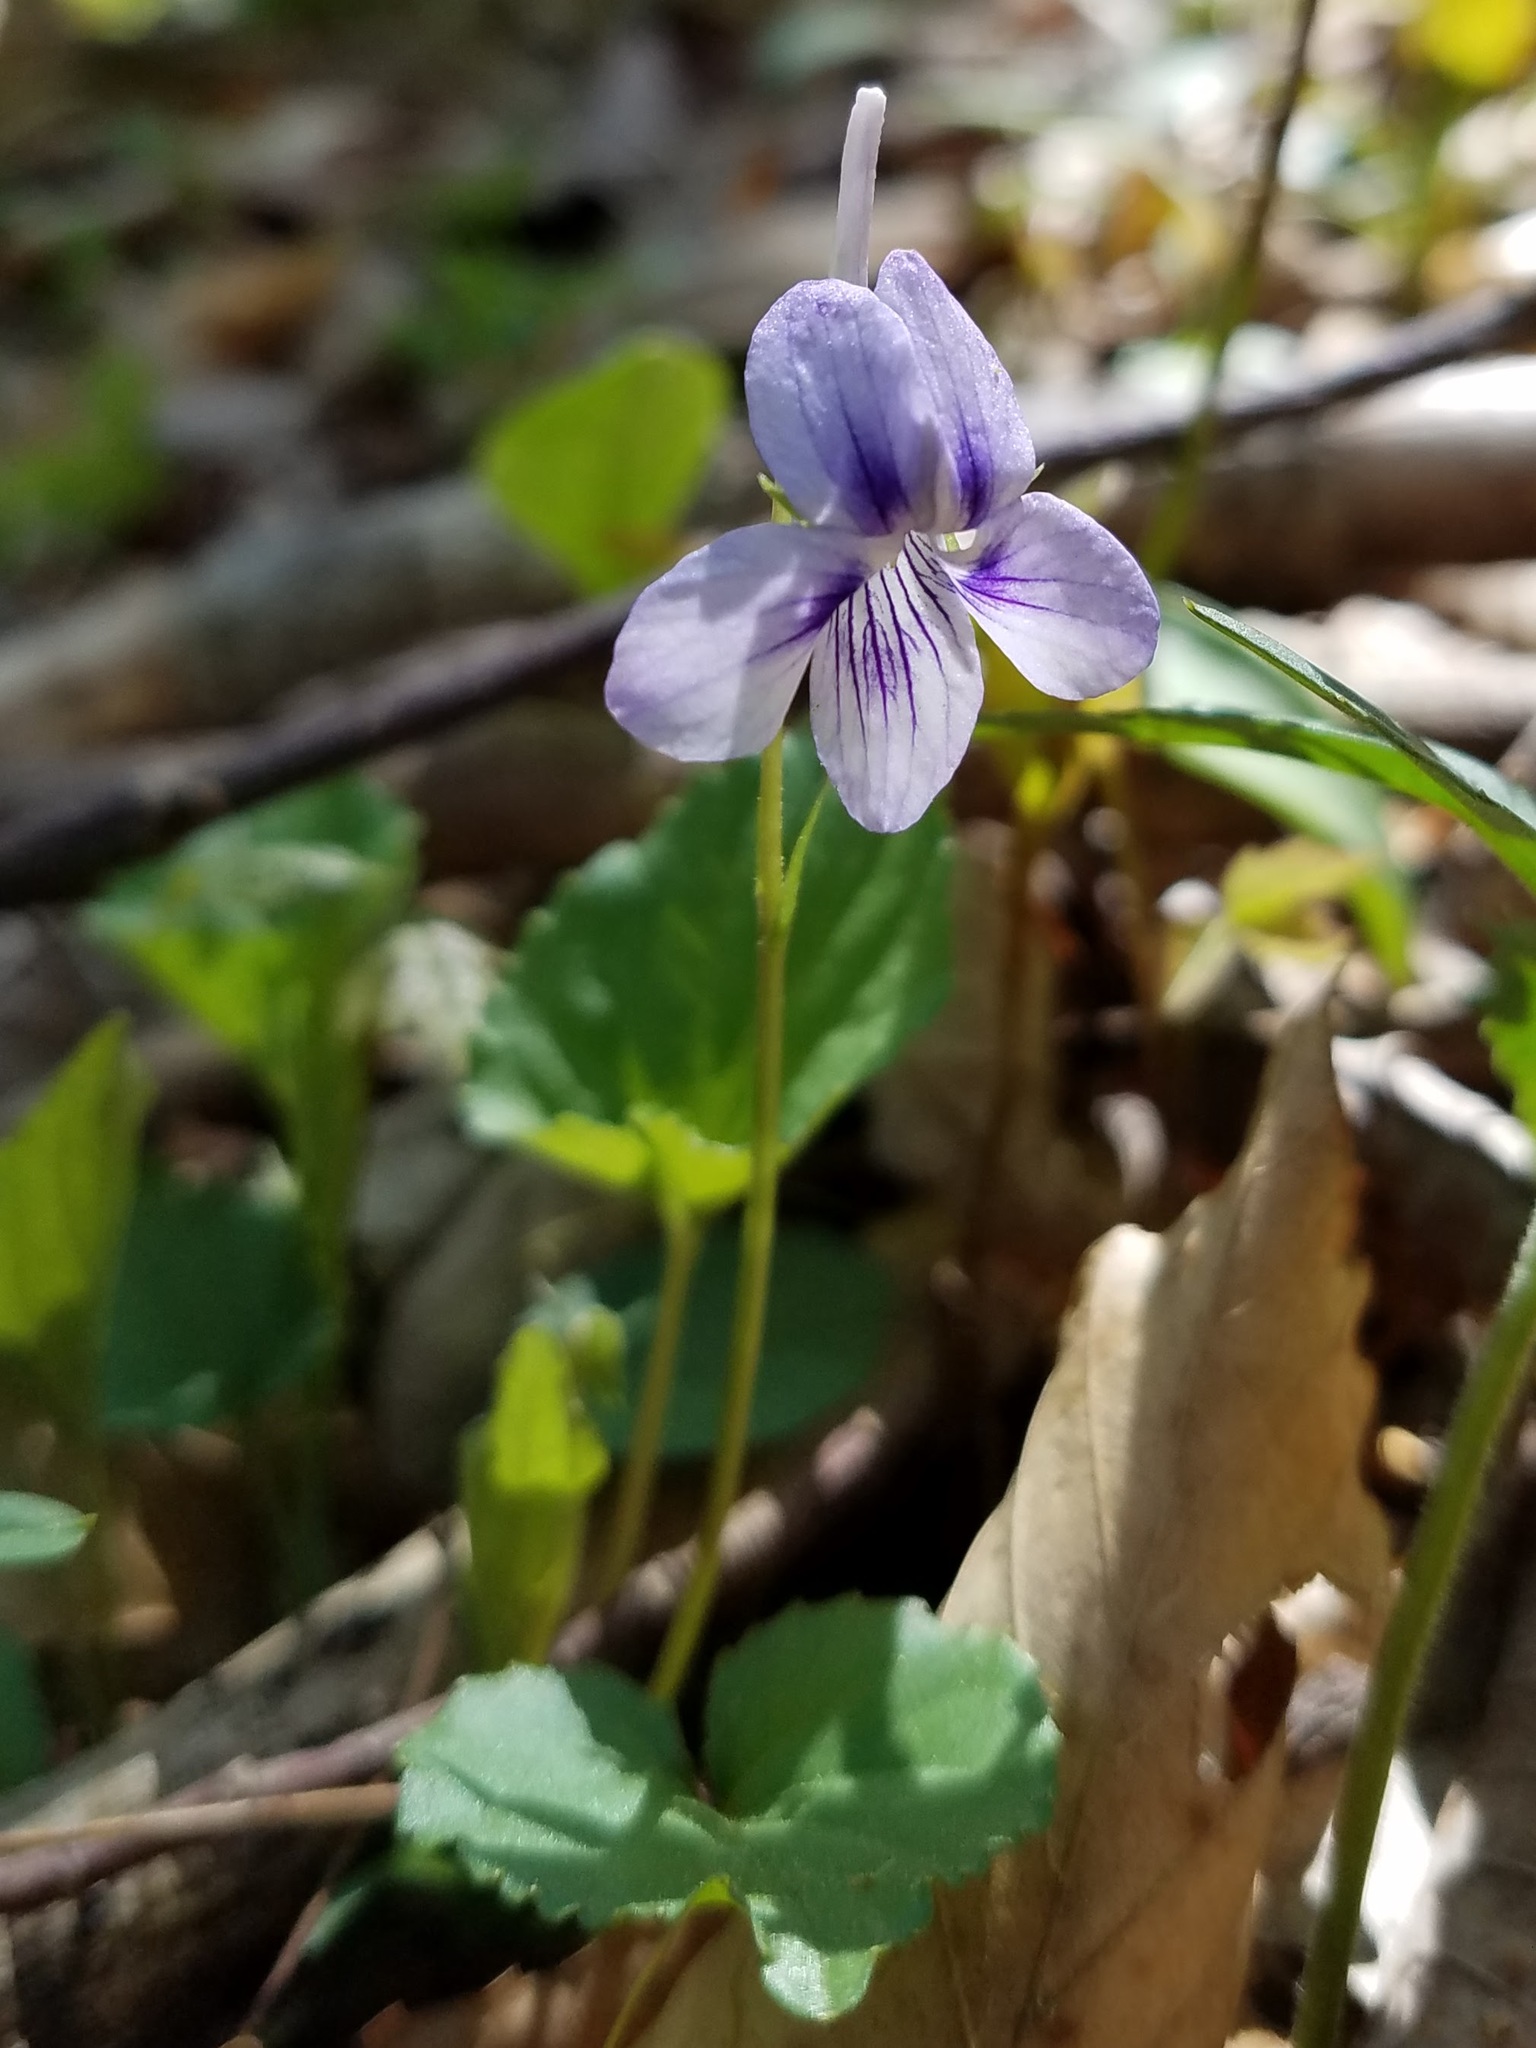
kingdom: Plantae
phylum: Tracheophyta
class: Magnoliopsida
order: Malpighiales
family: Violaceae
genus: Viola
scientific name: Viola rostrata
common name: Long-spur violet
